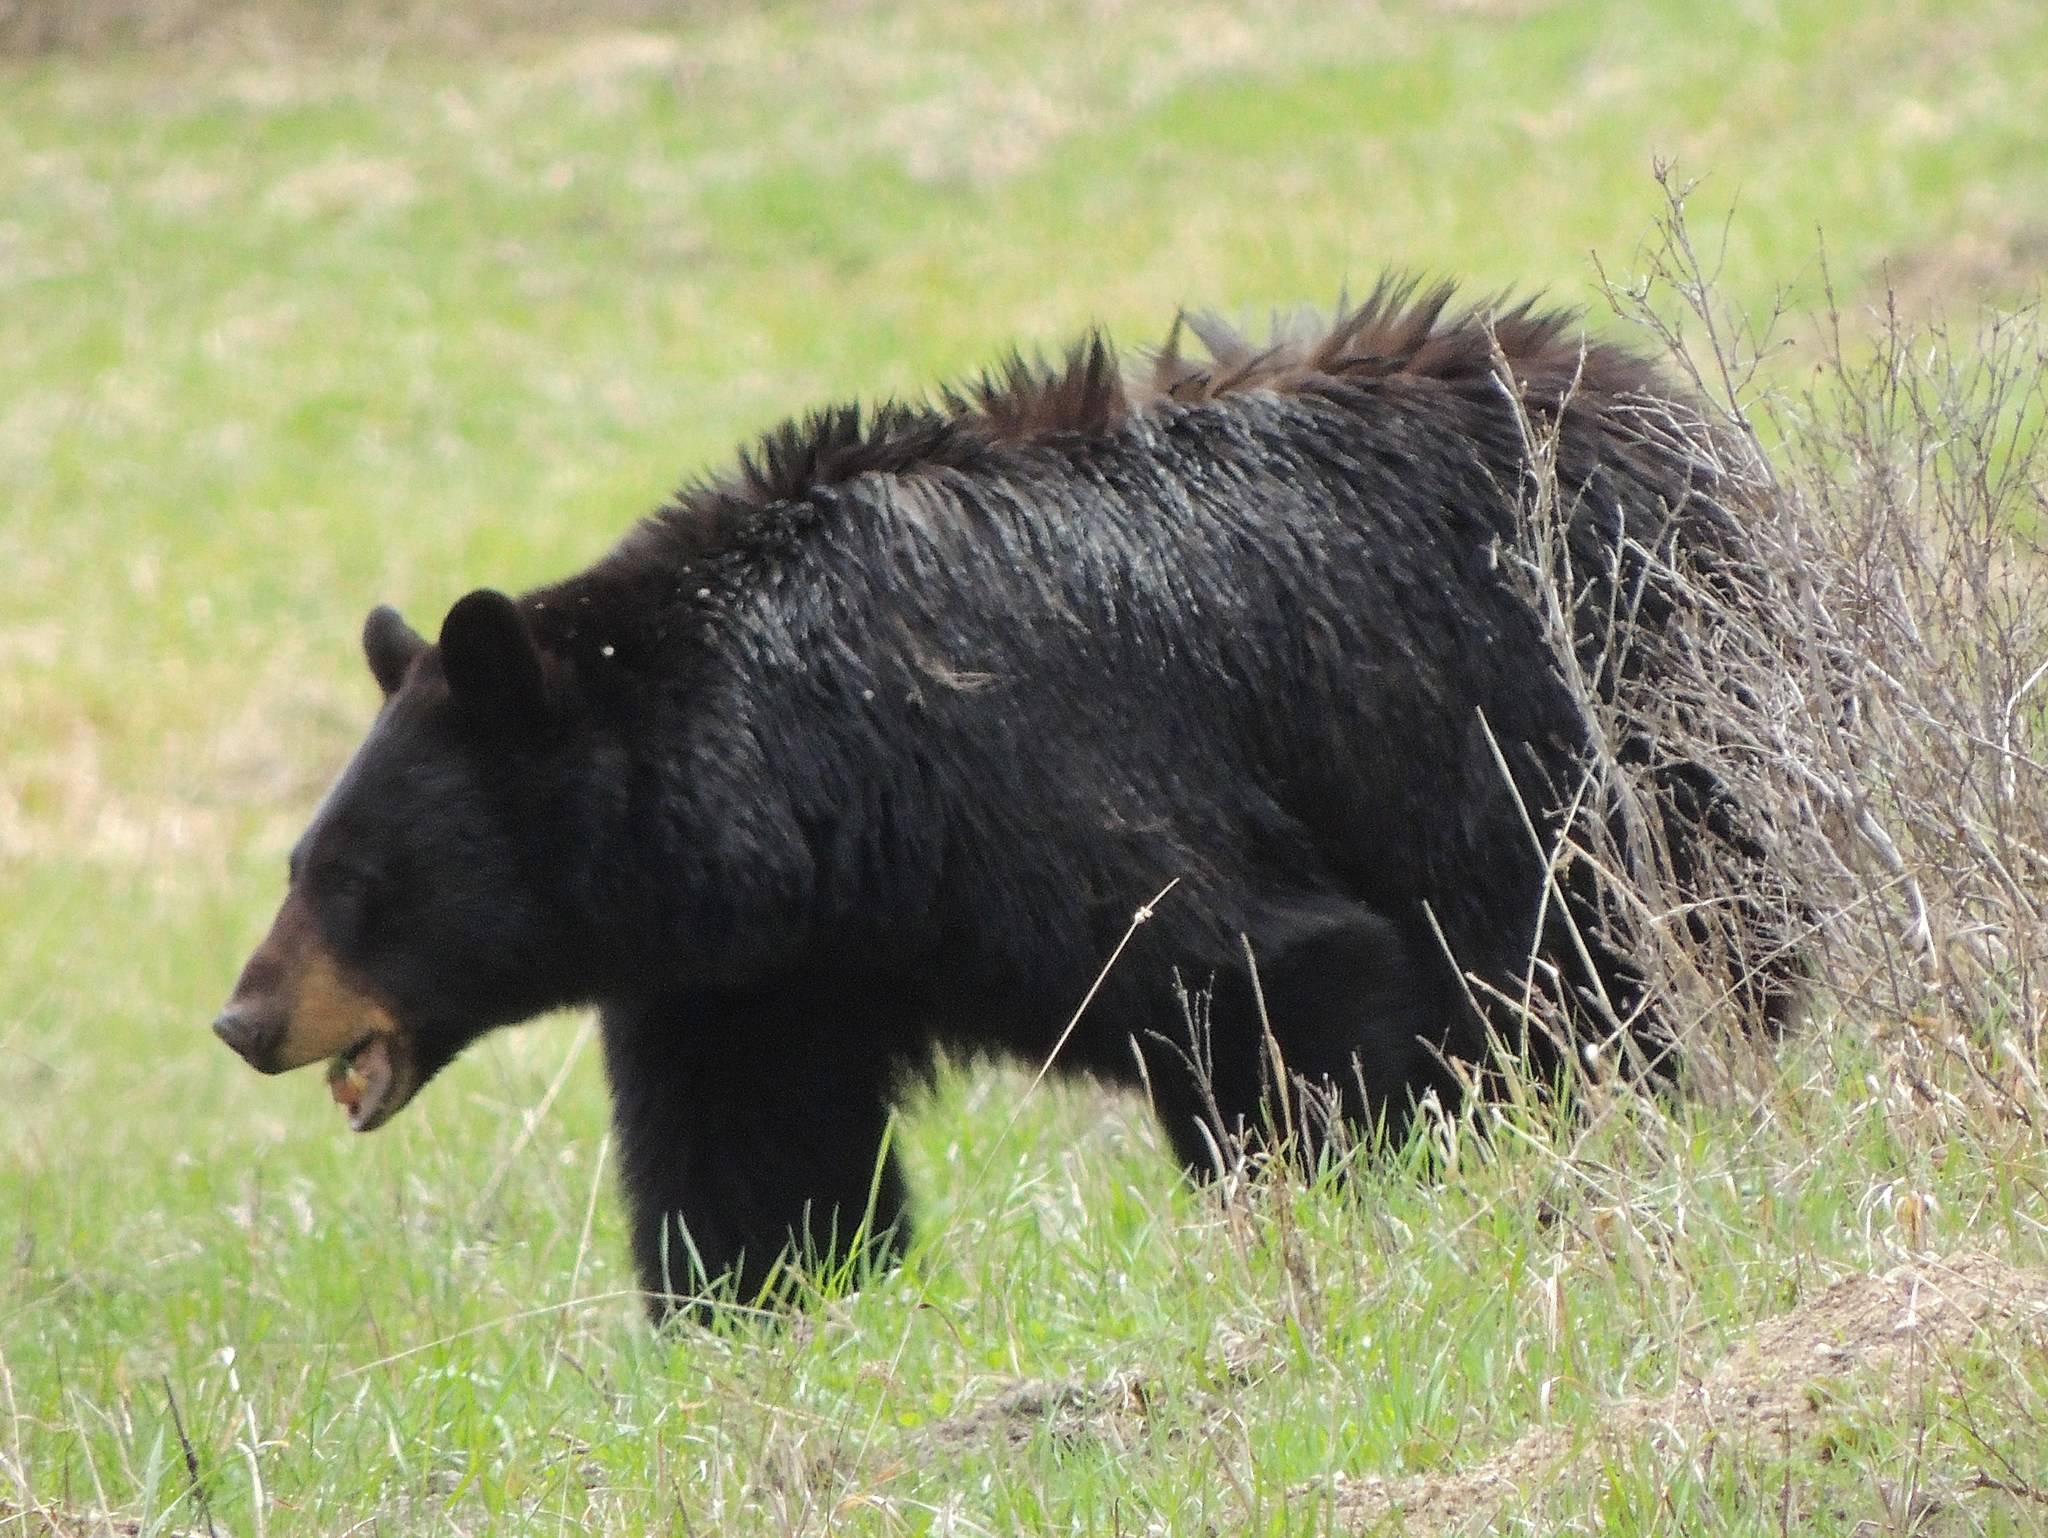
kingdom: Animalia
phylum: Chordata
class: Mammalia
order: Carnivora
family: Ursidae
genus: Ursus
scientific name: Ursus americanus
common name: American black bear
